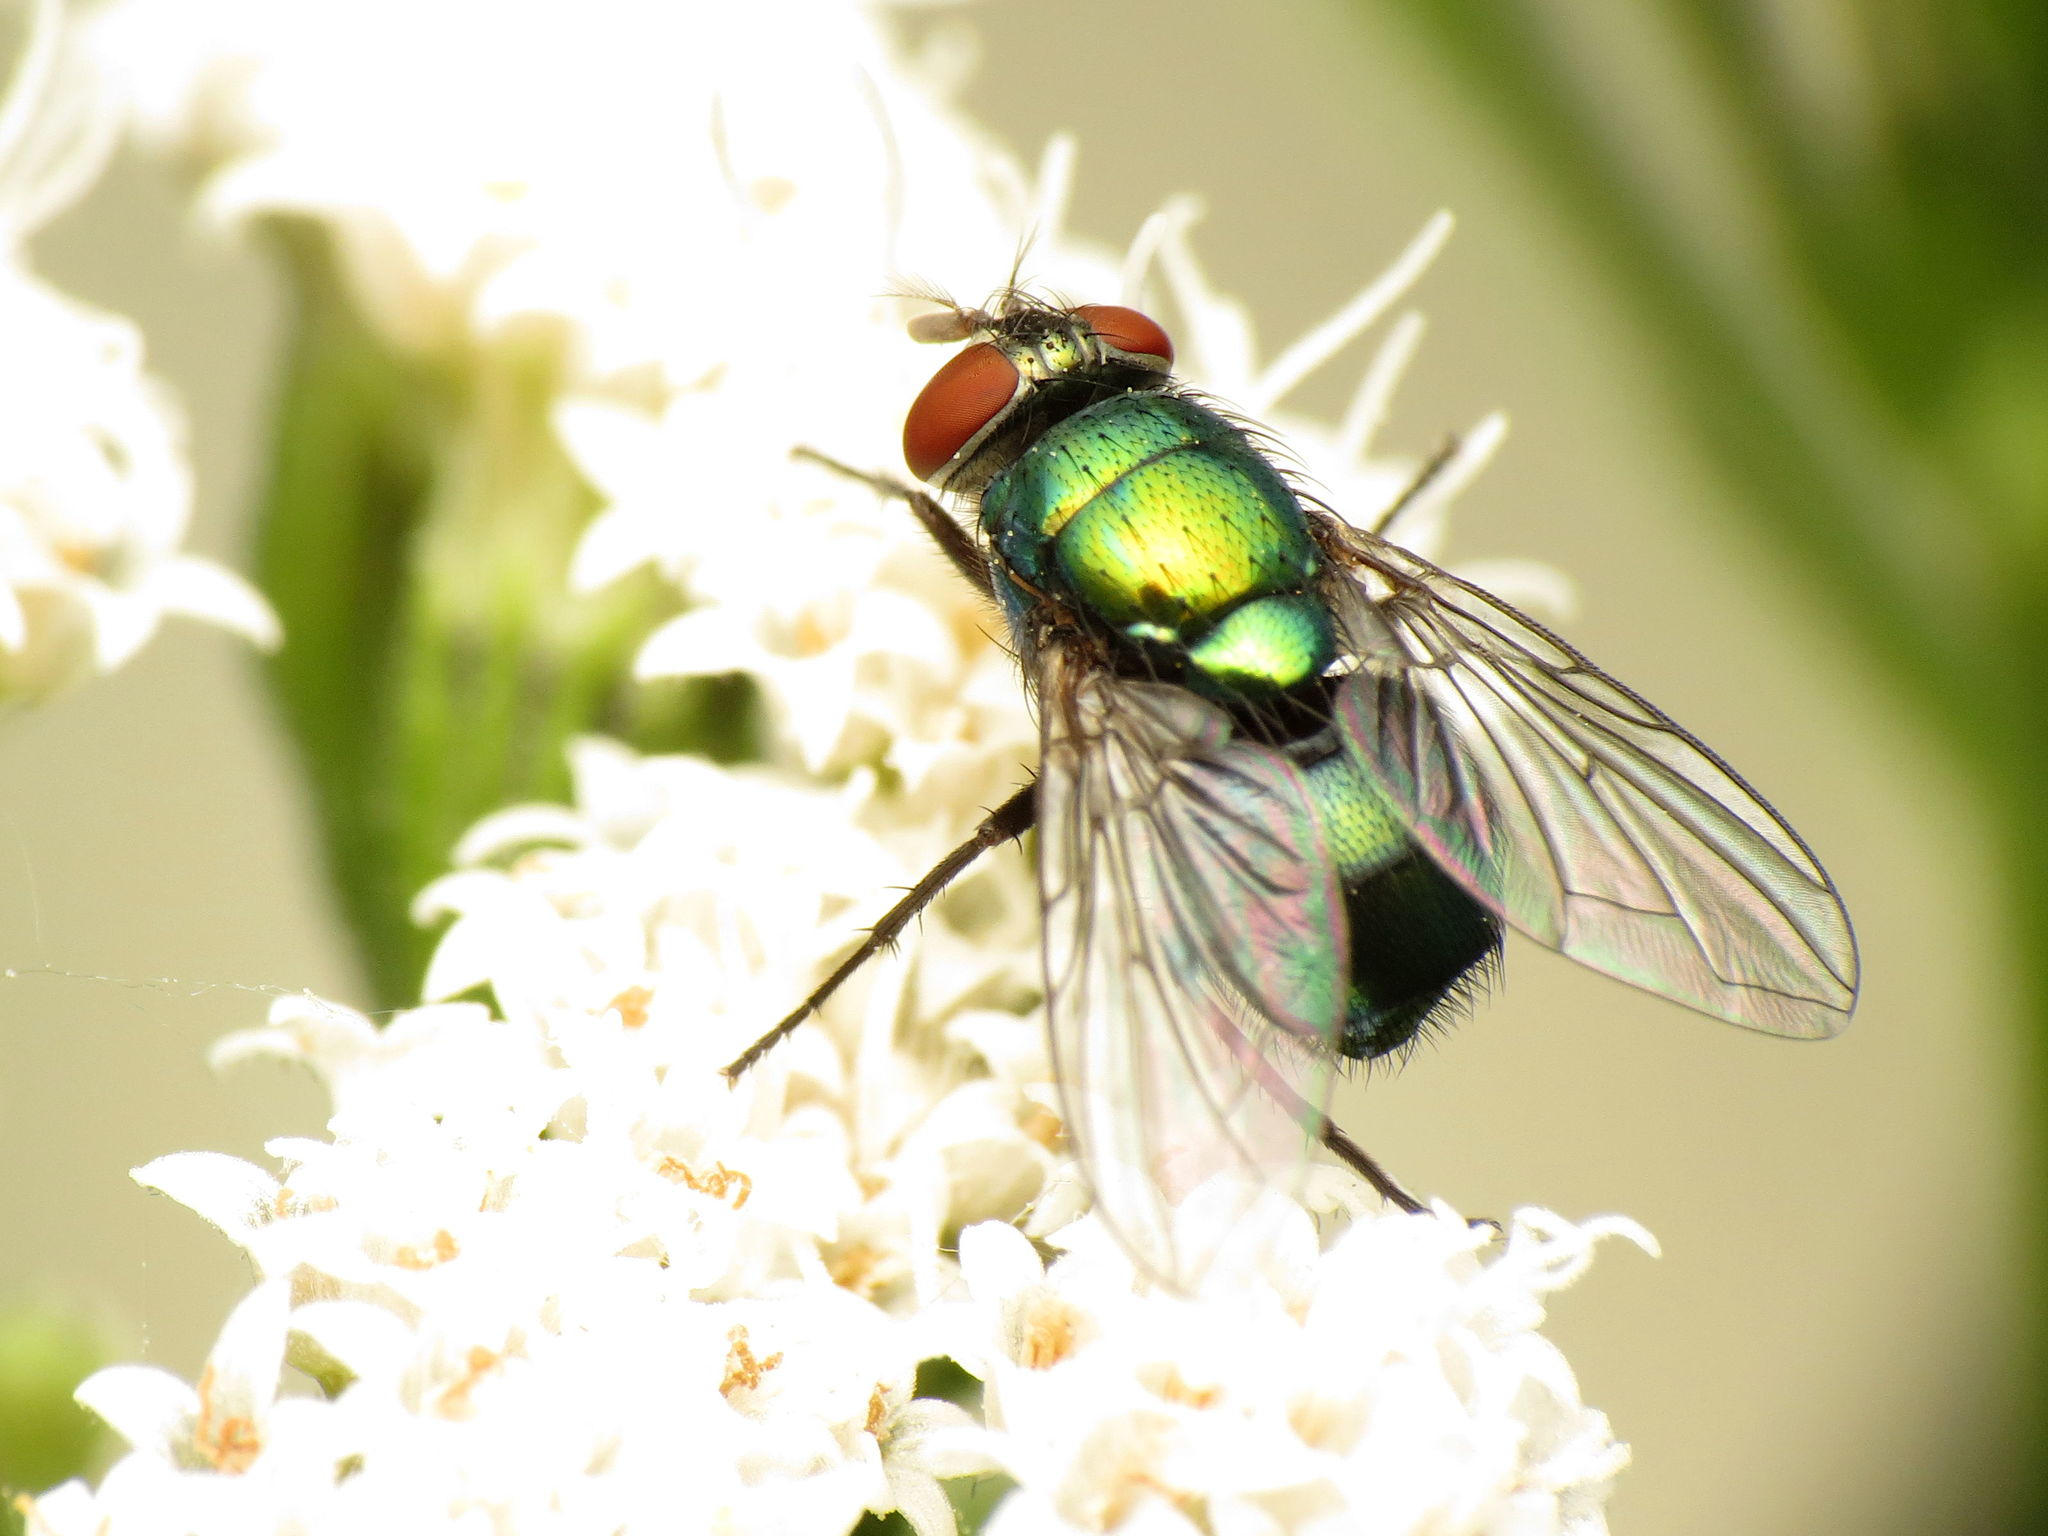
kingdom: Animalia
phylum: Arthropoda
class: Insecta
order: Diptera
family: Calliphoridae
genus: Lucilia
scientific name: Lucilia illustris
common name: Illustrious greenbottle
